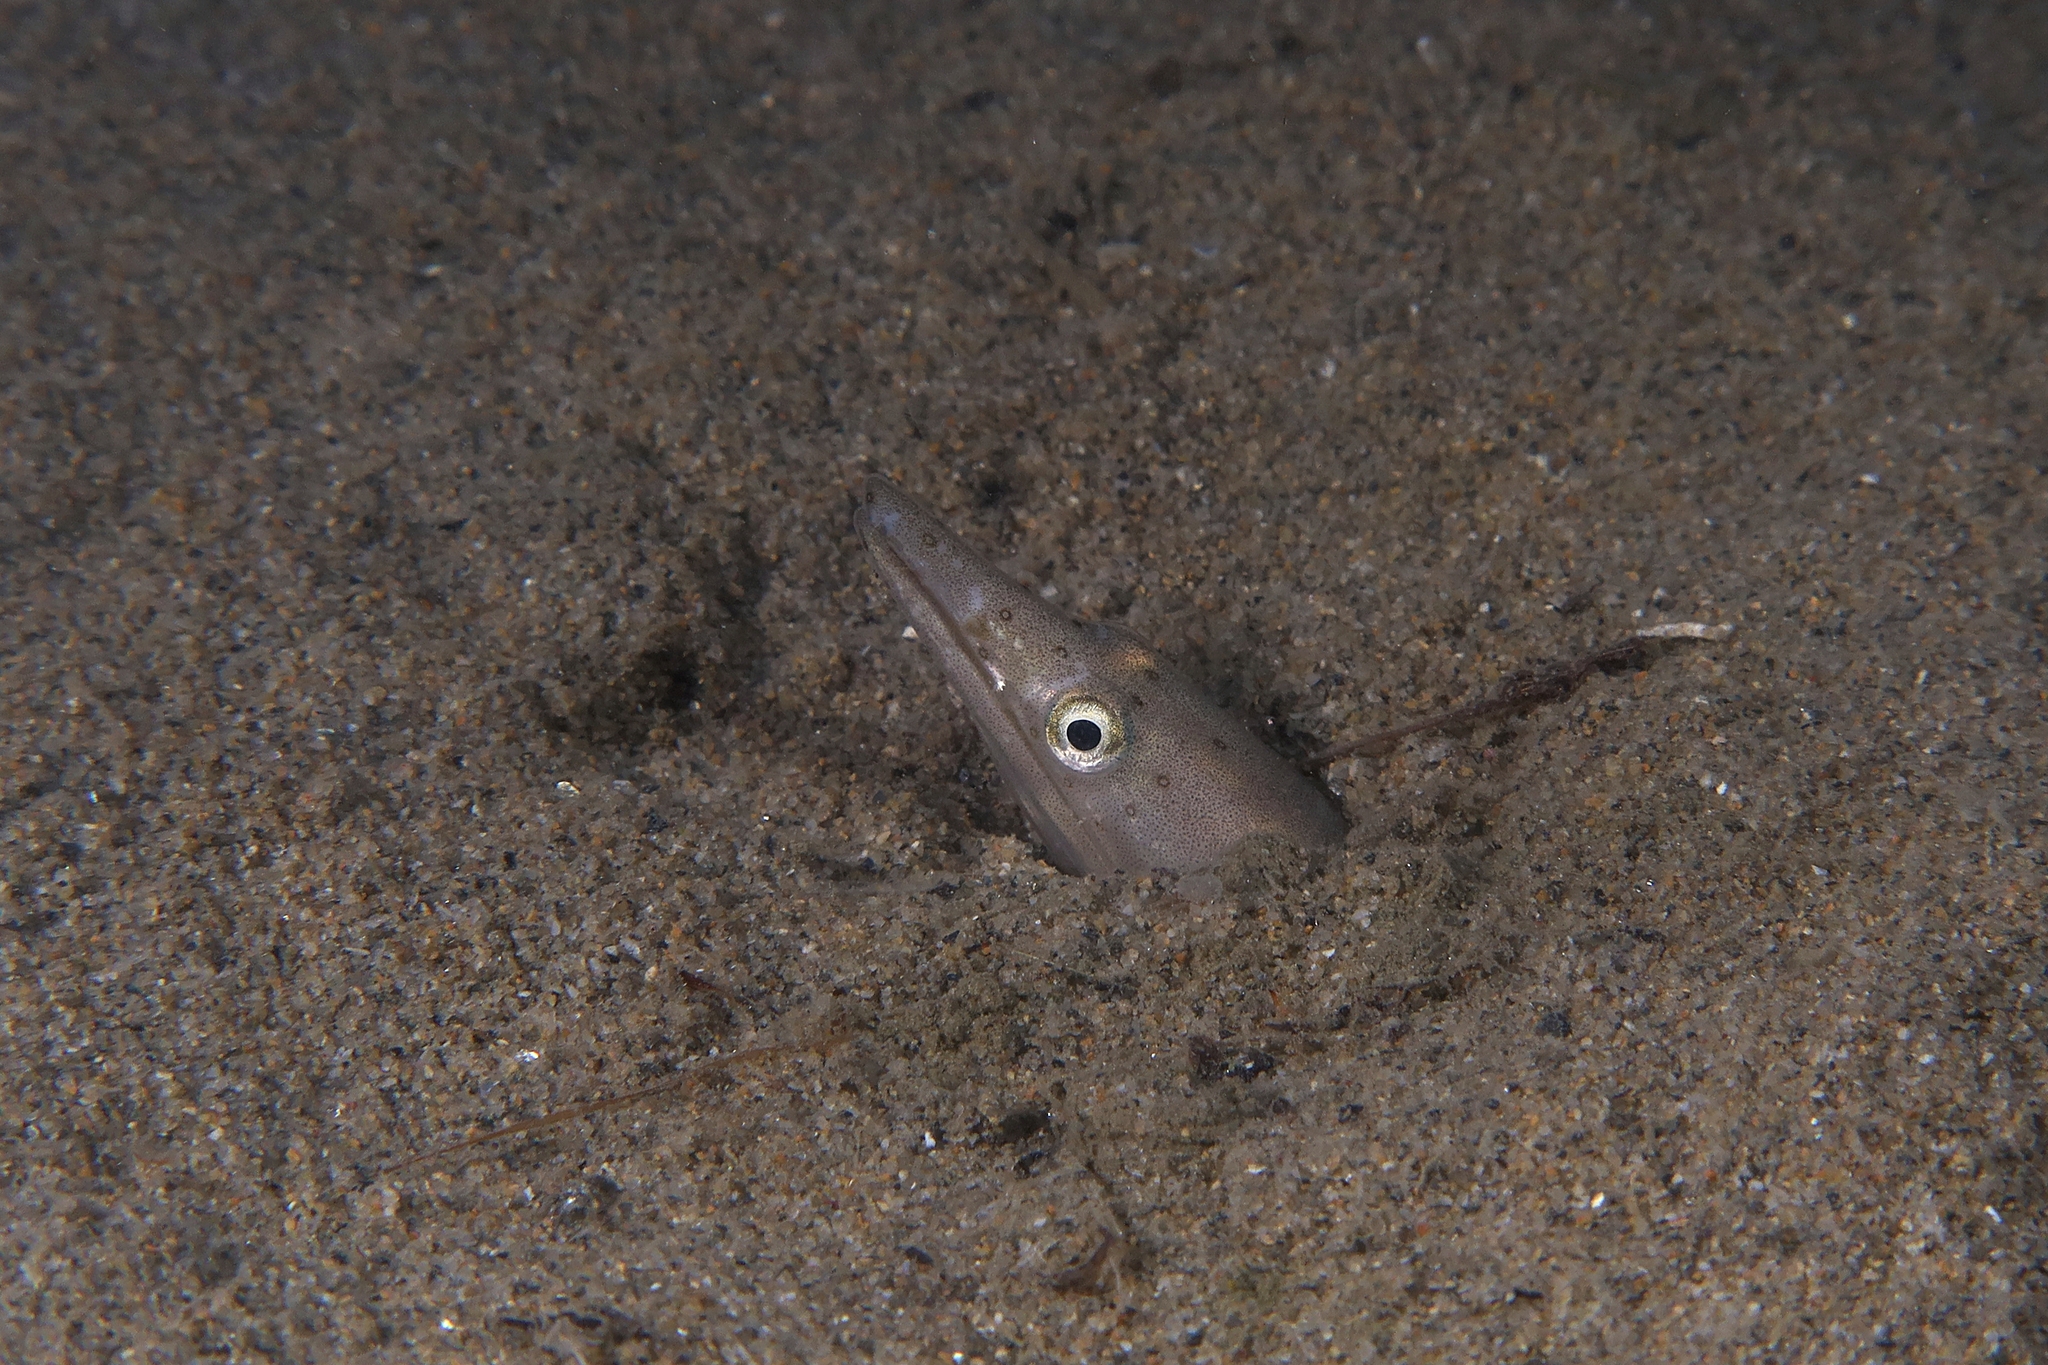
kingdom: Animalia
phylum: Chordata
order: Anguilliformes
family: Ophichthidae
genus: Ophisurus
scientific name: Ophisurus serpens
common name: Serpent eel
